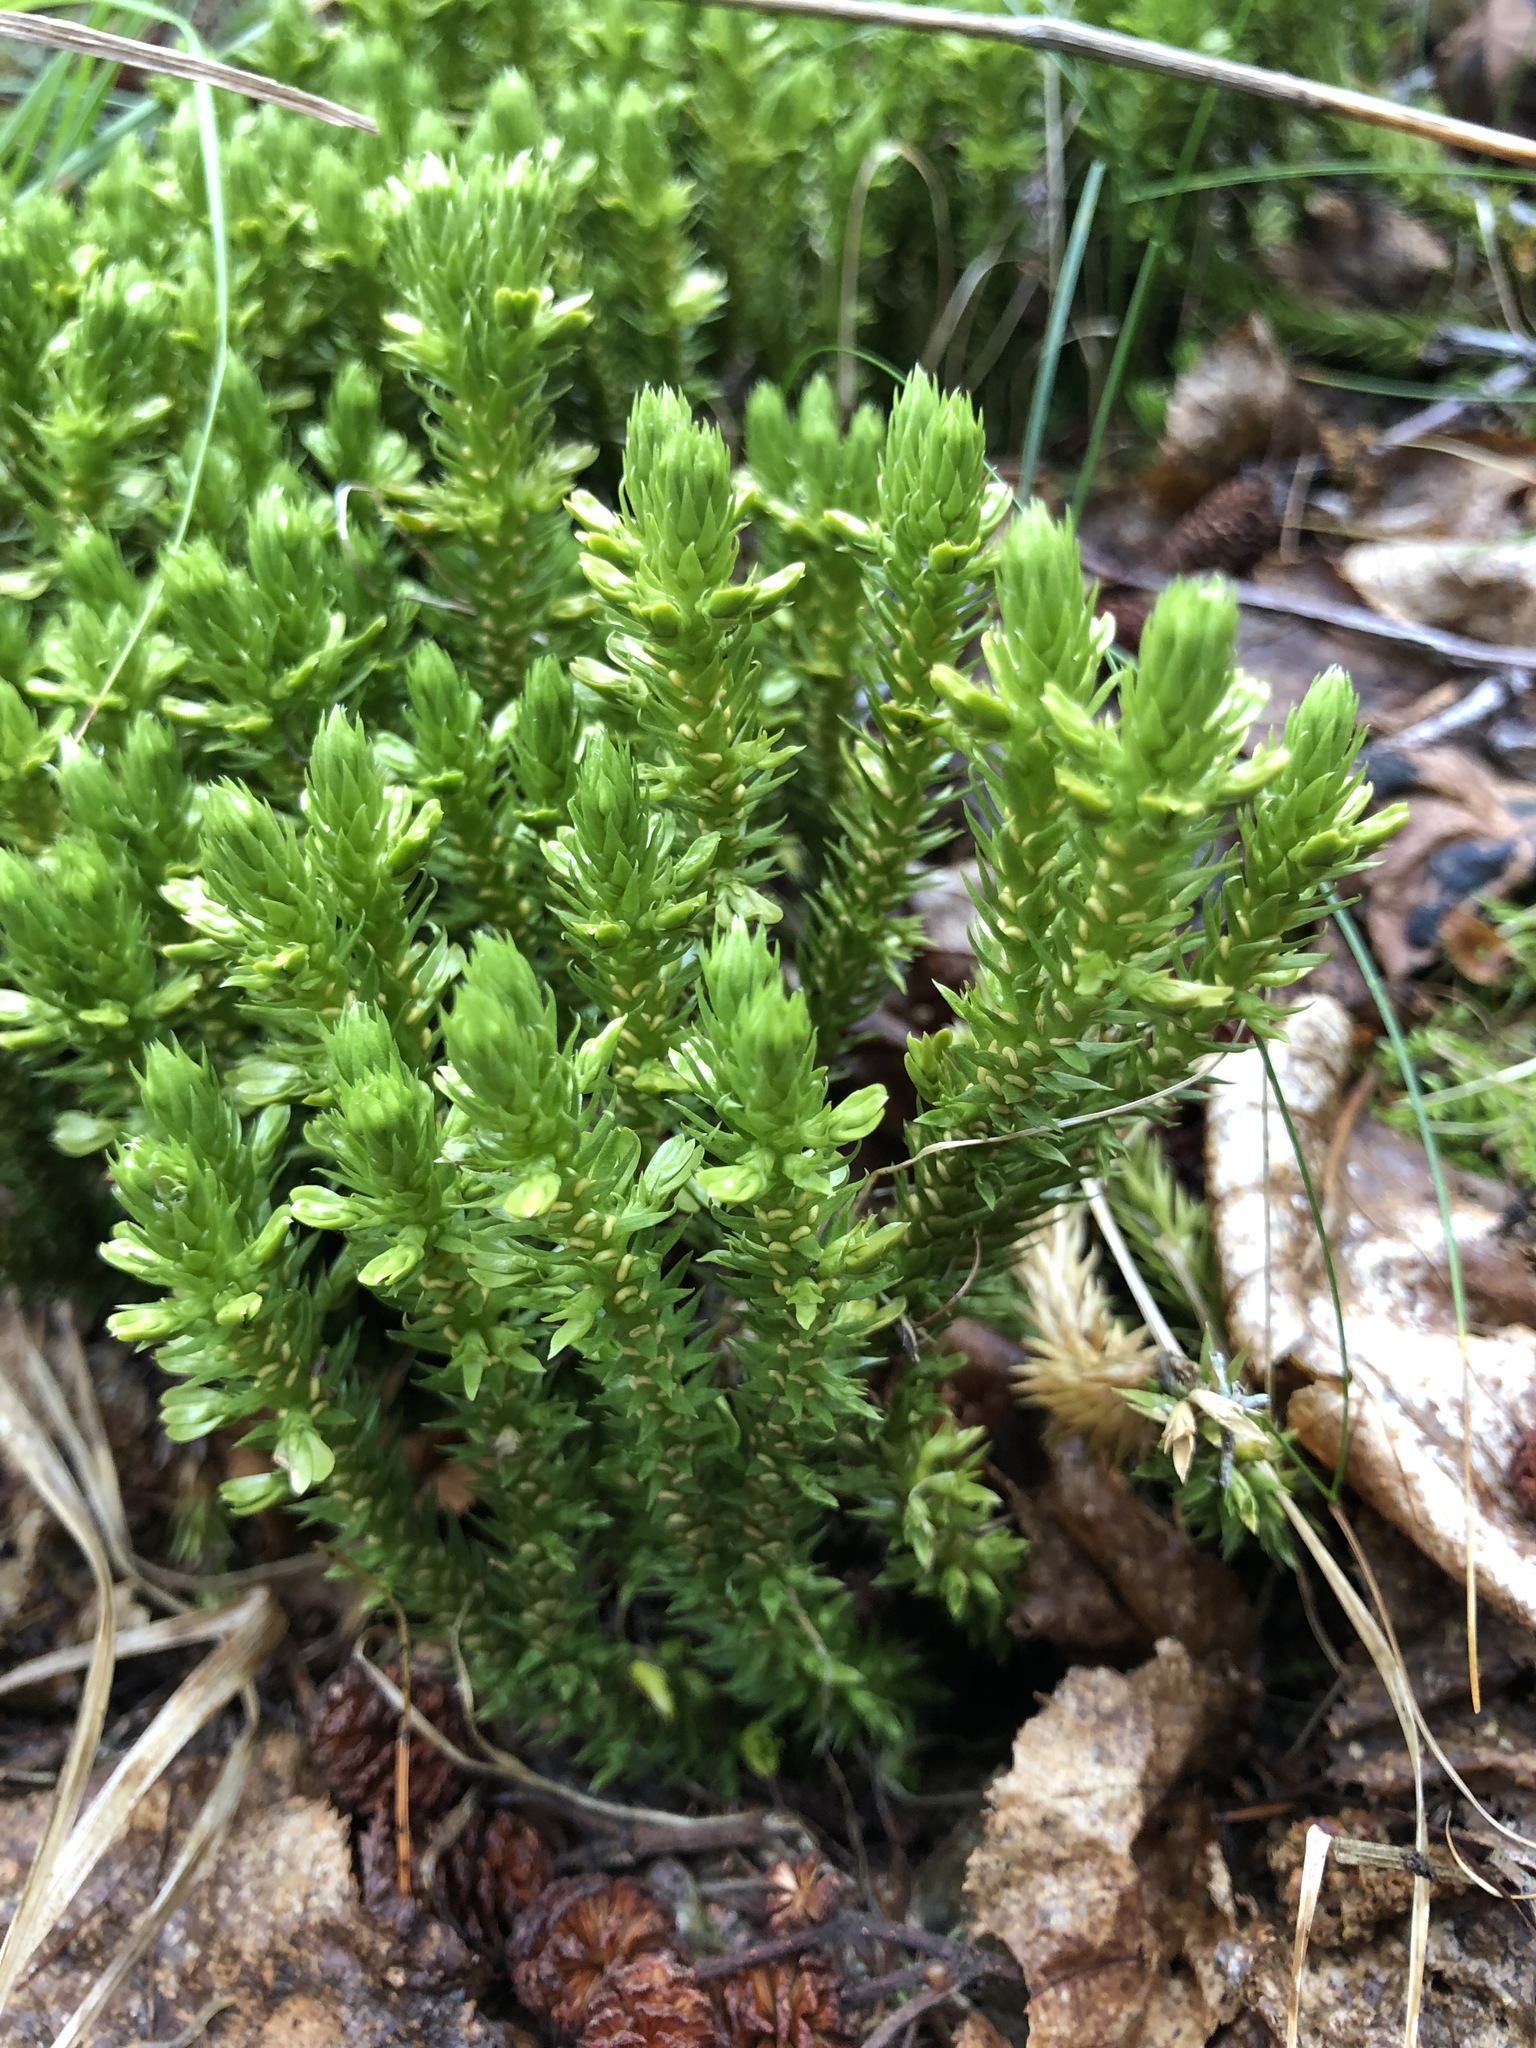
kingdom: Plantae
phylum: Tracheophyta
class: Lycopodiopsida
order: Lycopodiales
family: Lycopodiaceae
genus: Huperzia
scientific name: Huperzia selago
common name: Northern firmoss
